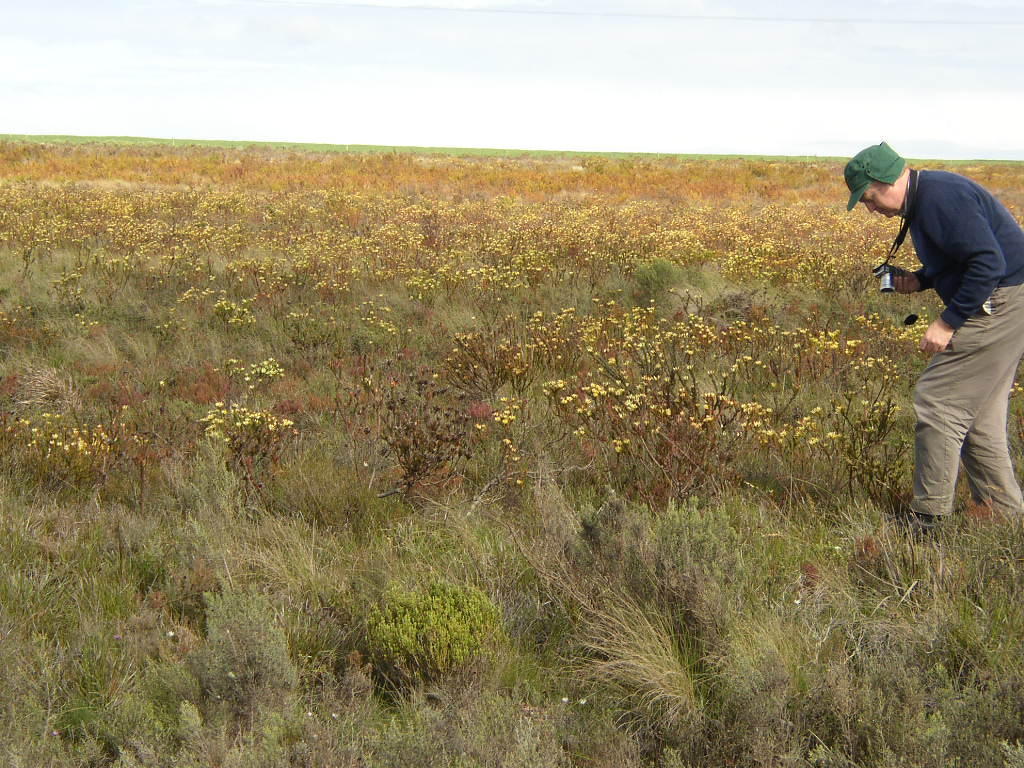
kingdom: Plantae
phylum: Tracheophyta
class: Magnoliopsida
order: Proteales
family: Proteaceae
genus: Leucadendron
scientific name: Leucadendron stelligerum
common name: Agulhas conebush
